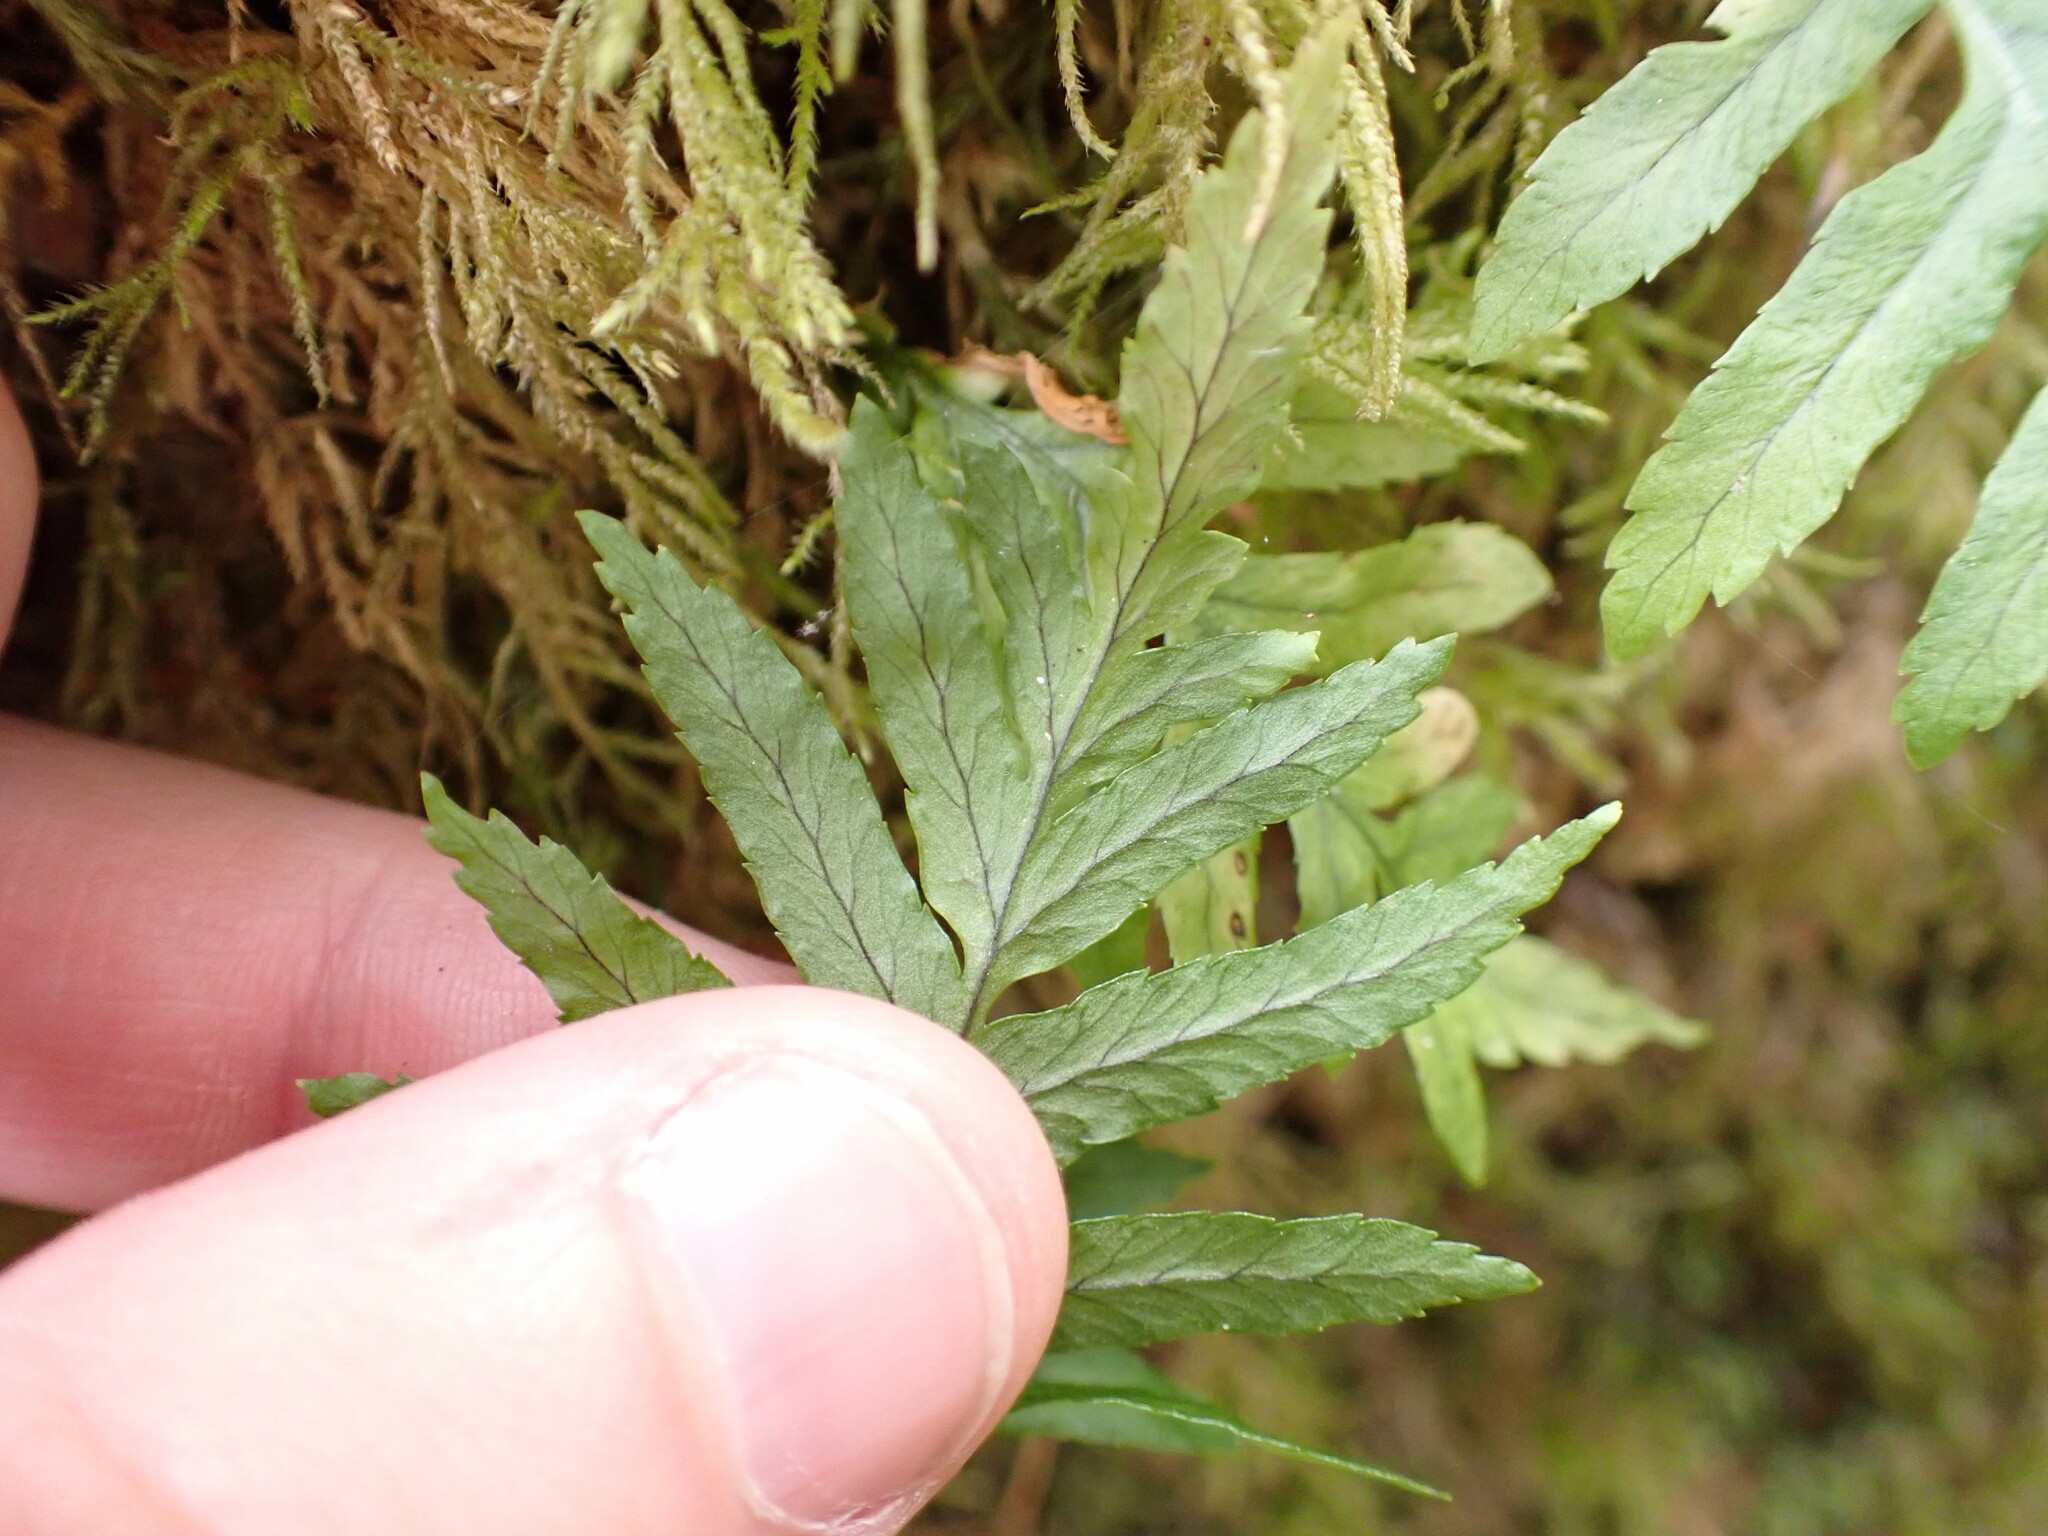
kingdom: Plantae
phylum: Tracheophyta
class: Polypodiopsida
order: Polypodiales
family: Polypodiaceae
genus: Polypodium
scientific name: Polypodium glycyrrhiza
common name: Licorice fern
